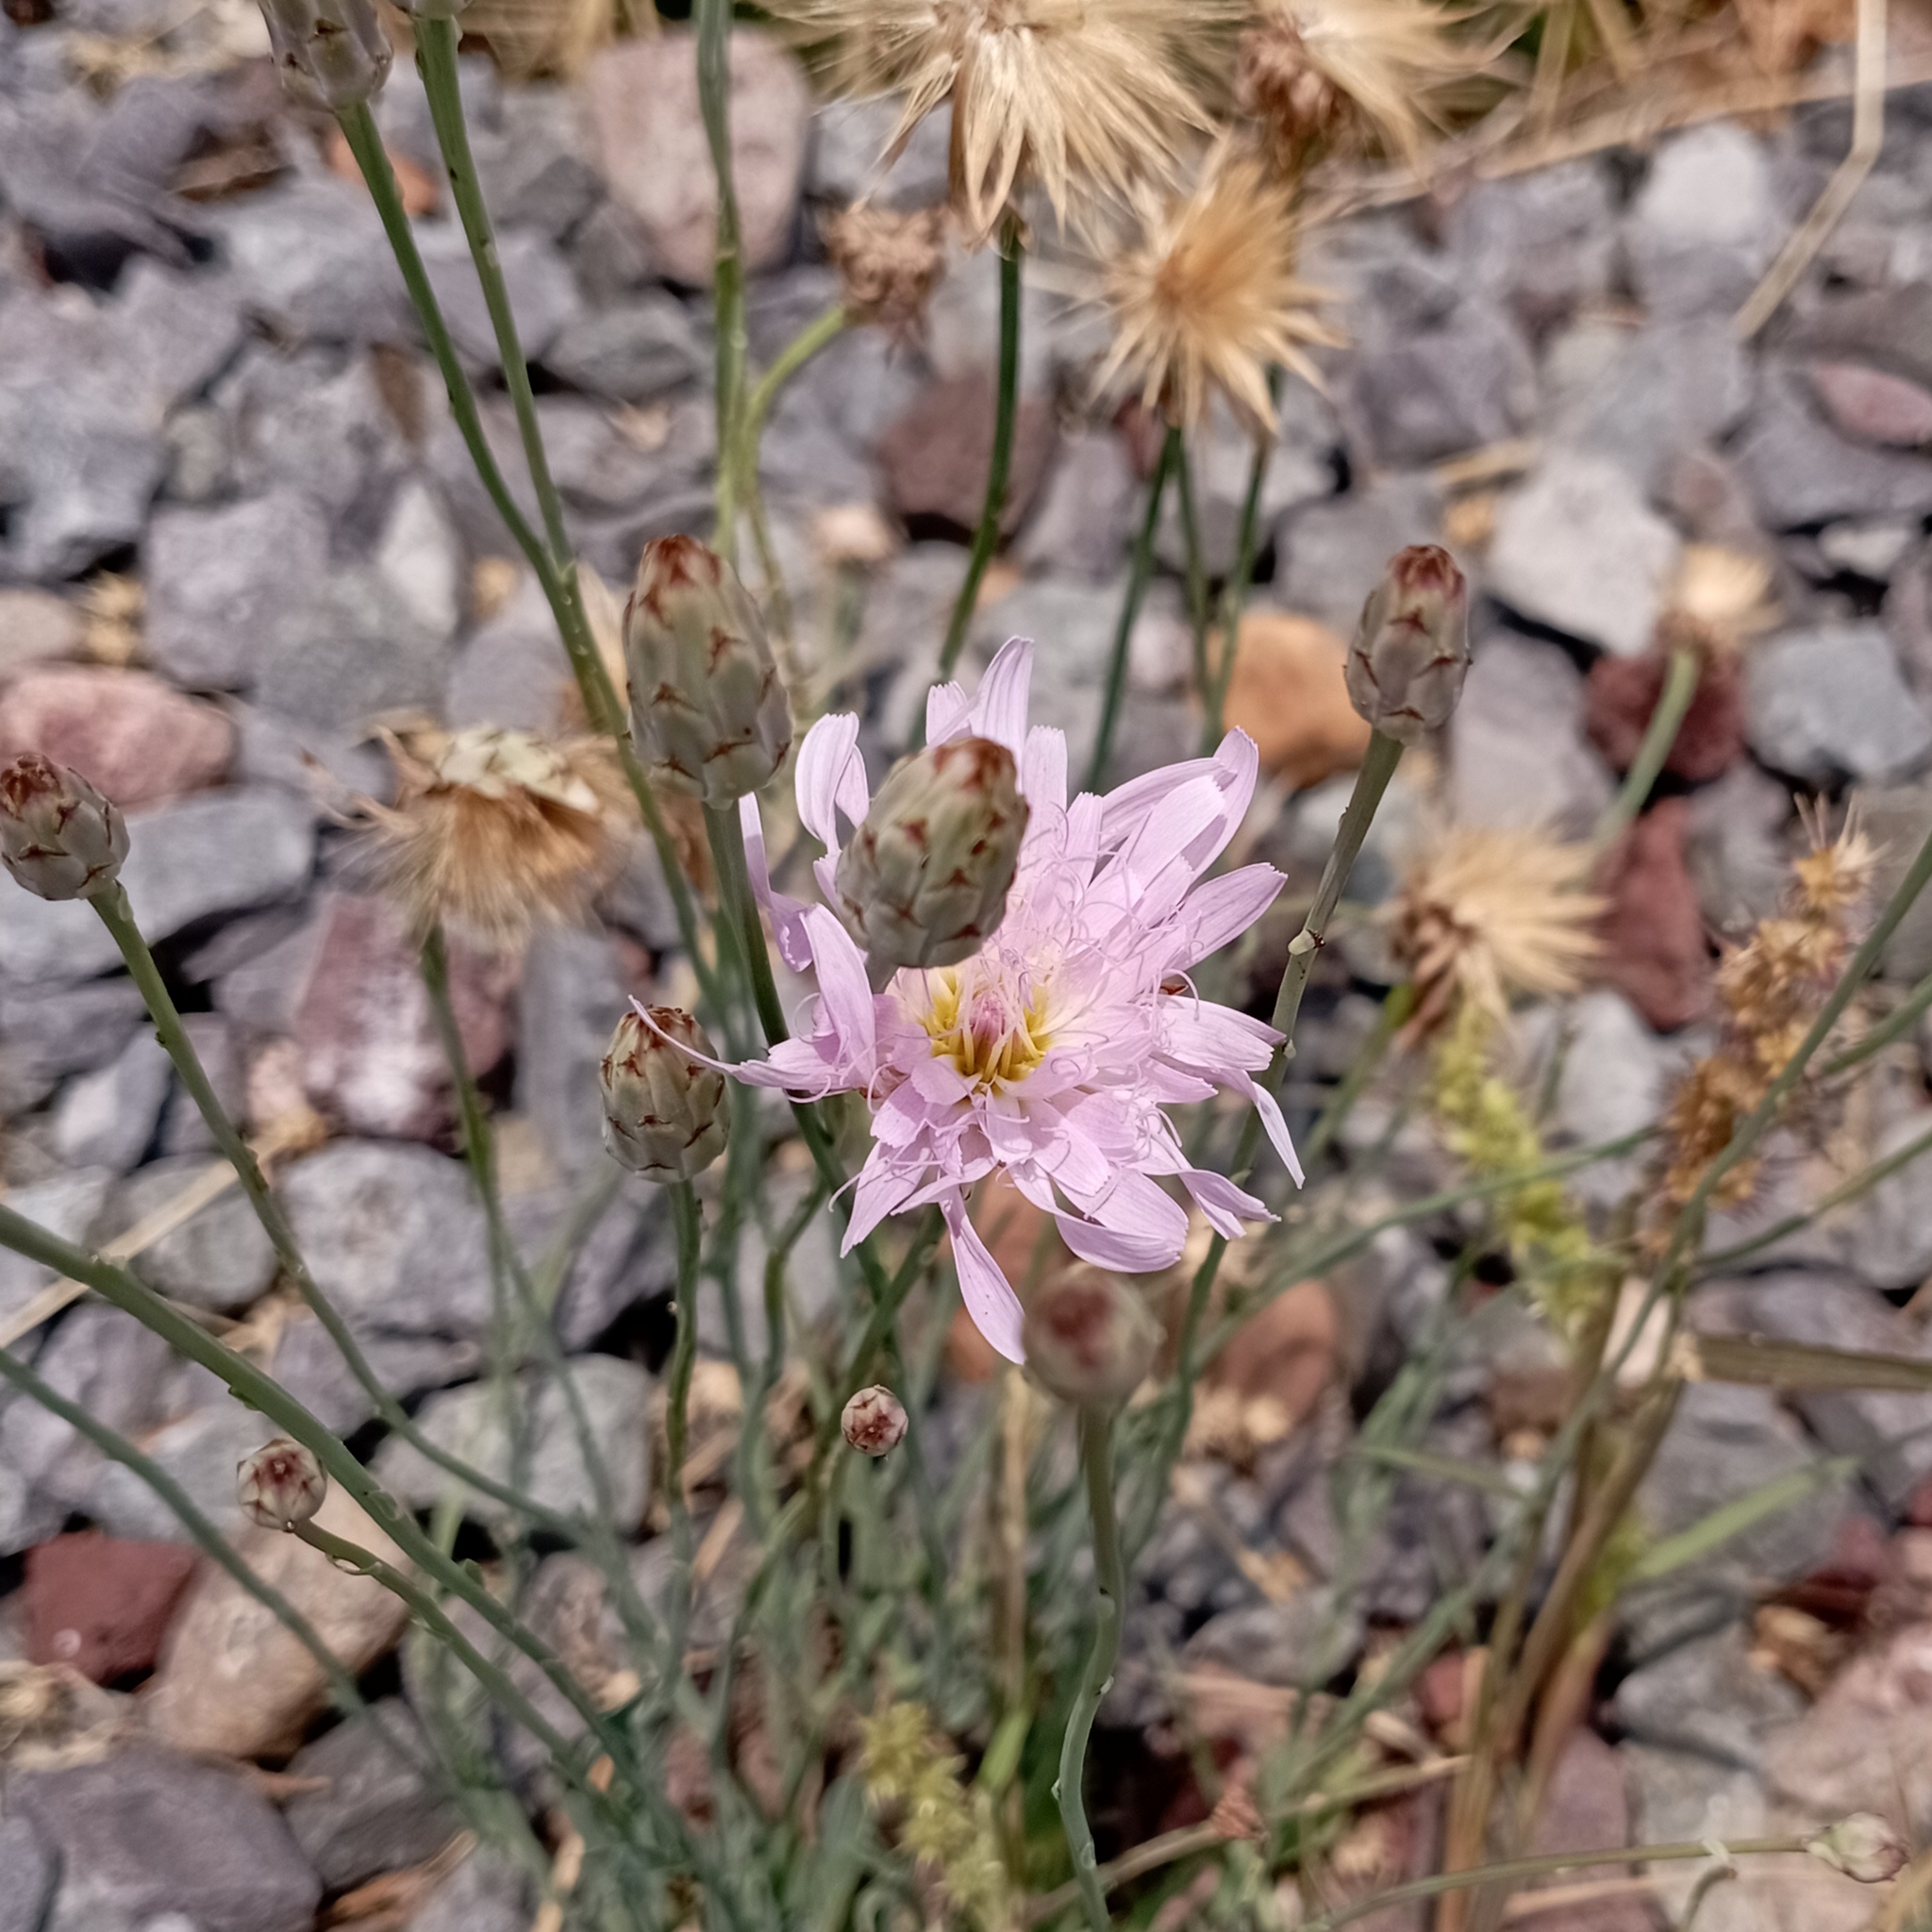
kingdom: Plantae
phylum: Tracheophyta
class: Magnoliopsida
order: Asterales
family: Asteraceae
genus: Pinaropappus
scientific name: Pinaropappus roseus
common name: Rock-lettuce
